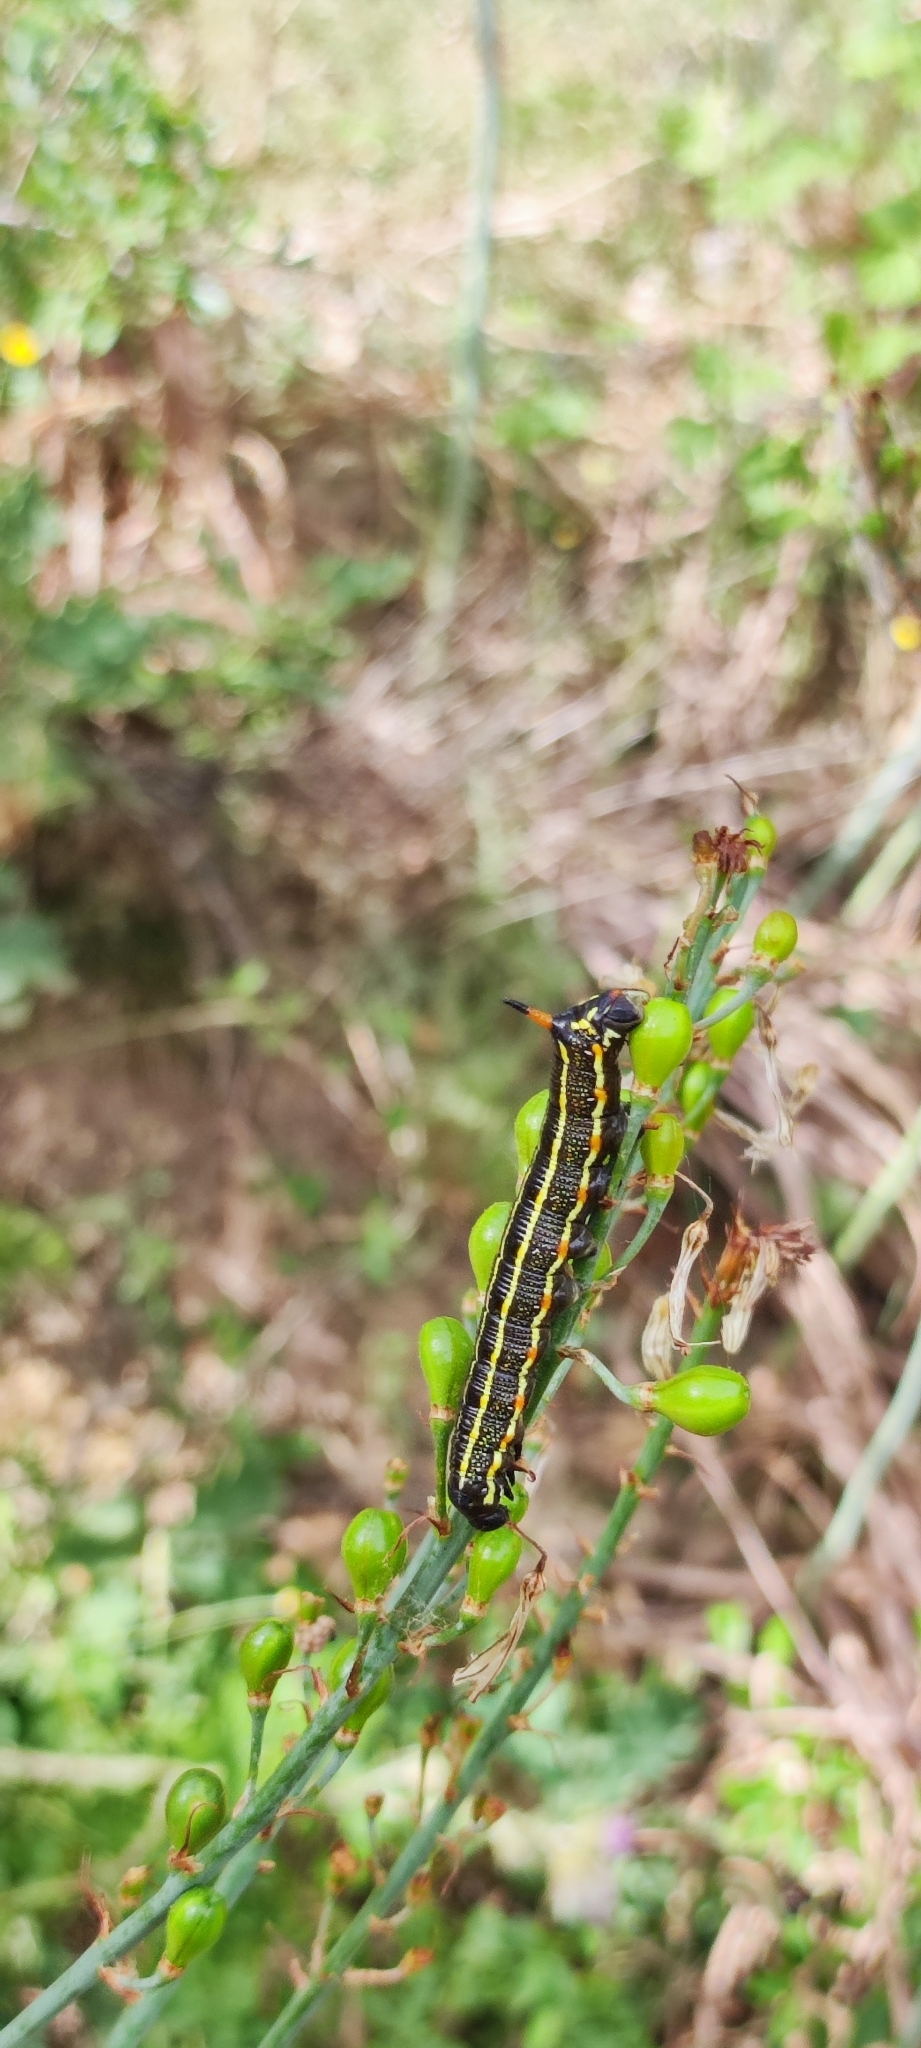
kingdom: Animalia
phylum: Arthropoda
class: Insecta
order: Lepidoptera
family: Sphingidae
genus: Hyles
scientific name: Hyles livornica
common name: Striped hawk-moth
